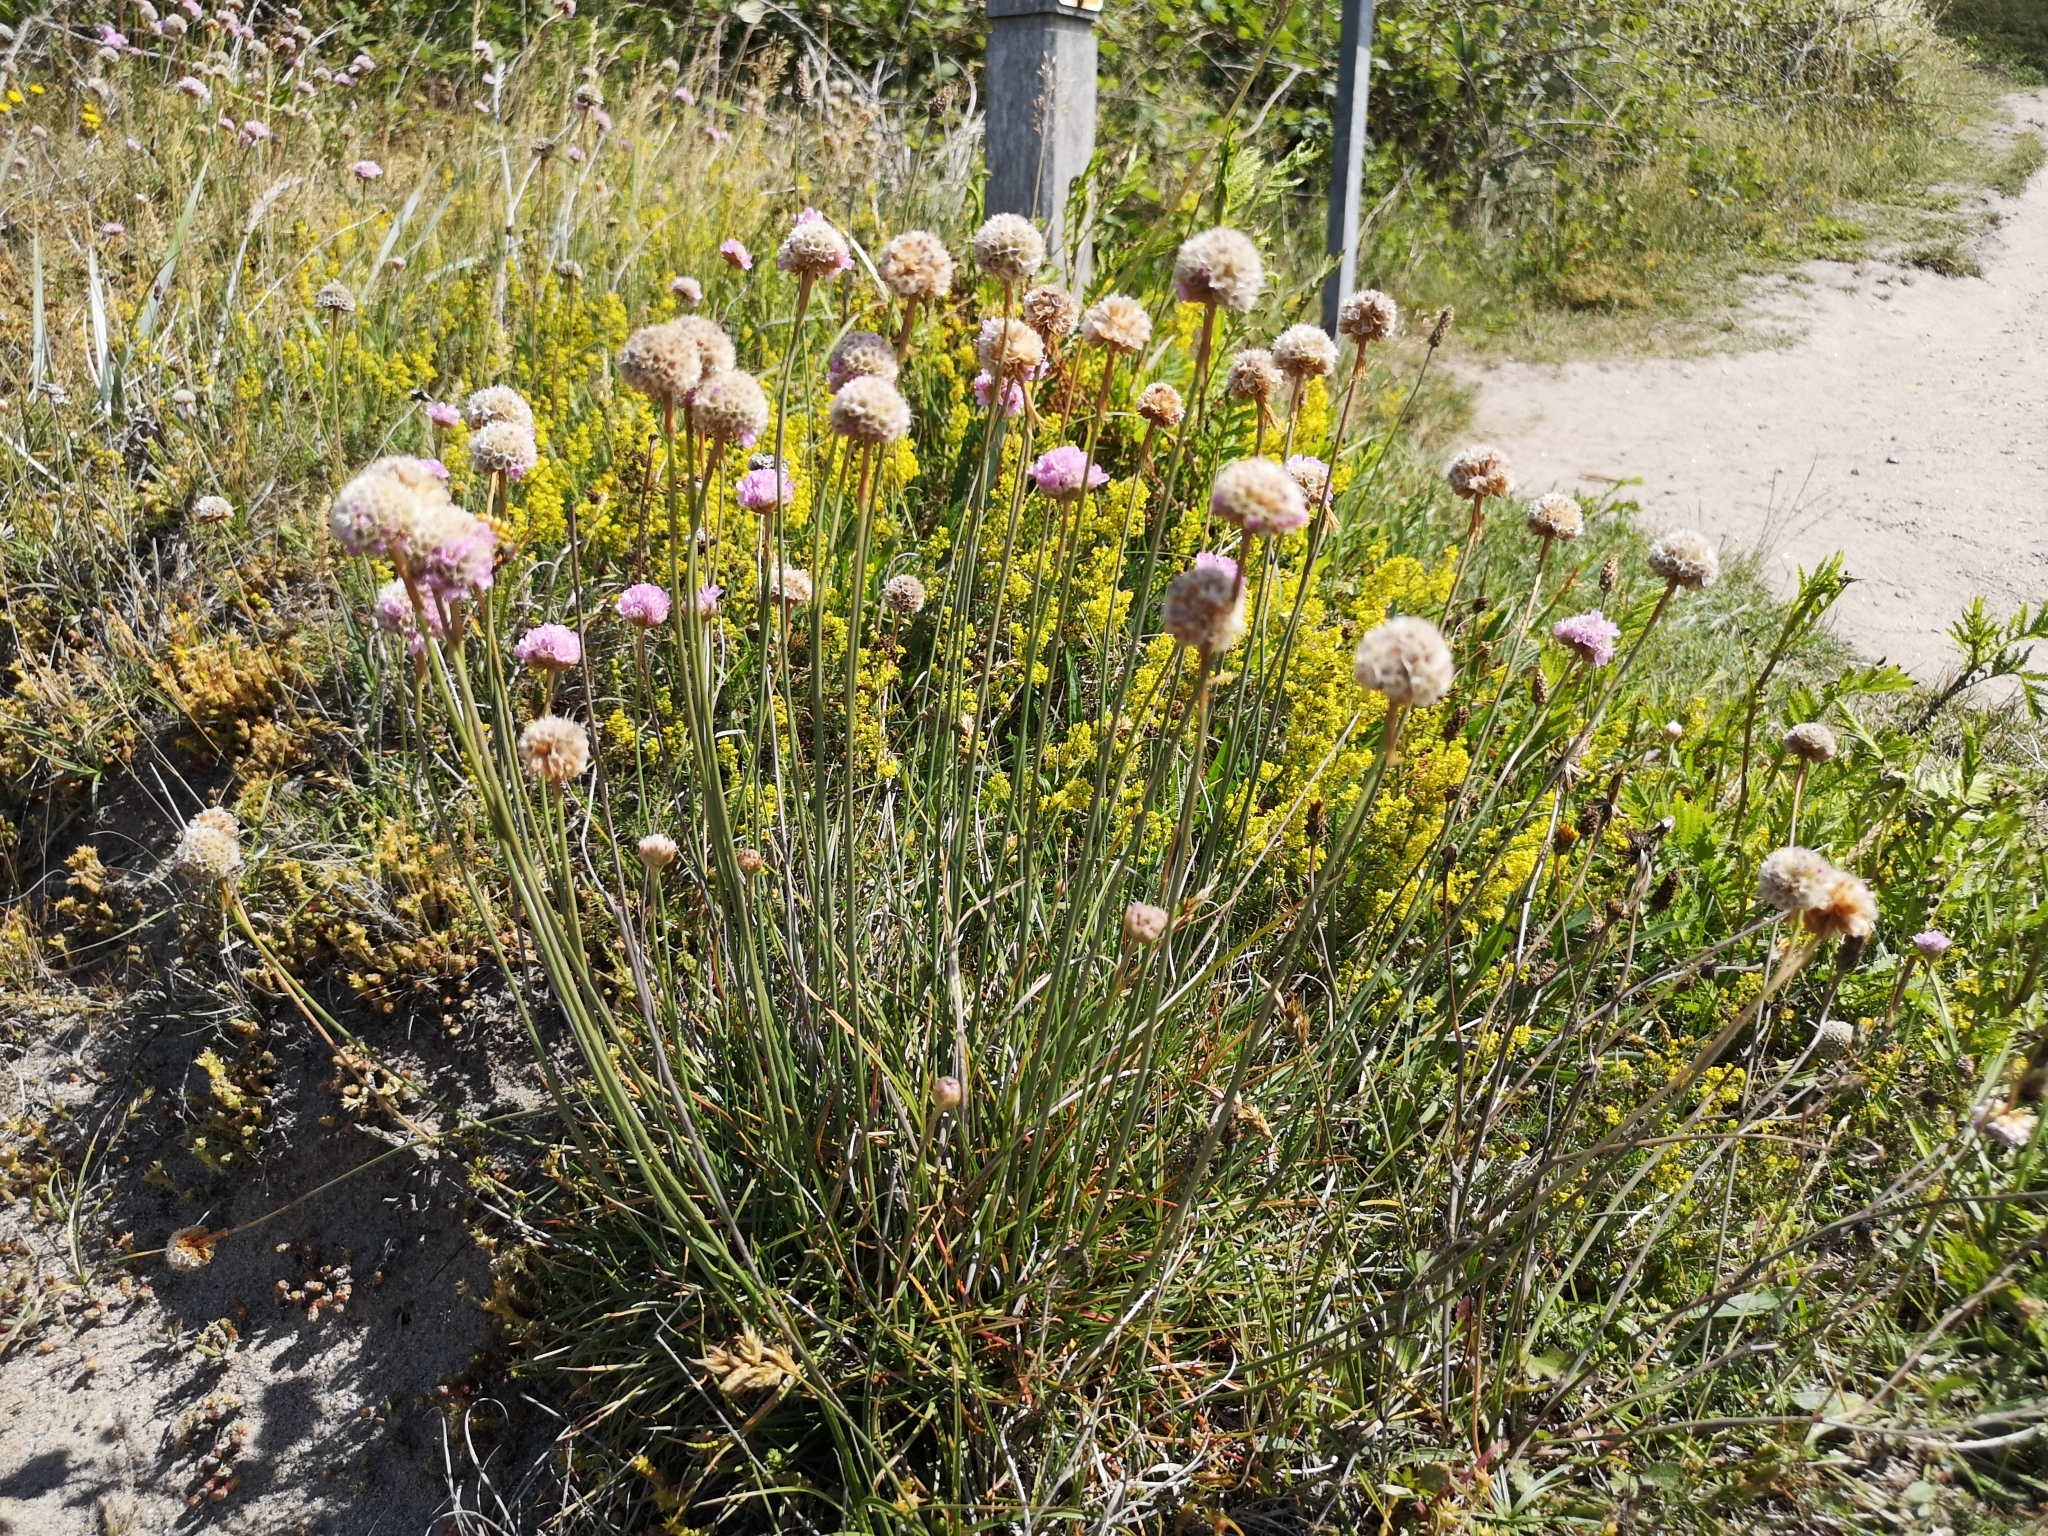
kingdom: Plantae
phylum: Tracheophyta
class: Magnoliopsida
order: Caryophyllales
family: Plumbaginaceae
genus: Armeria
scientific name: Armeria maritima
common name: Thrift
